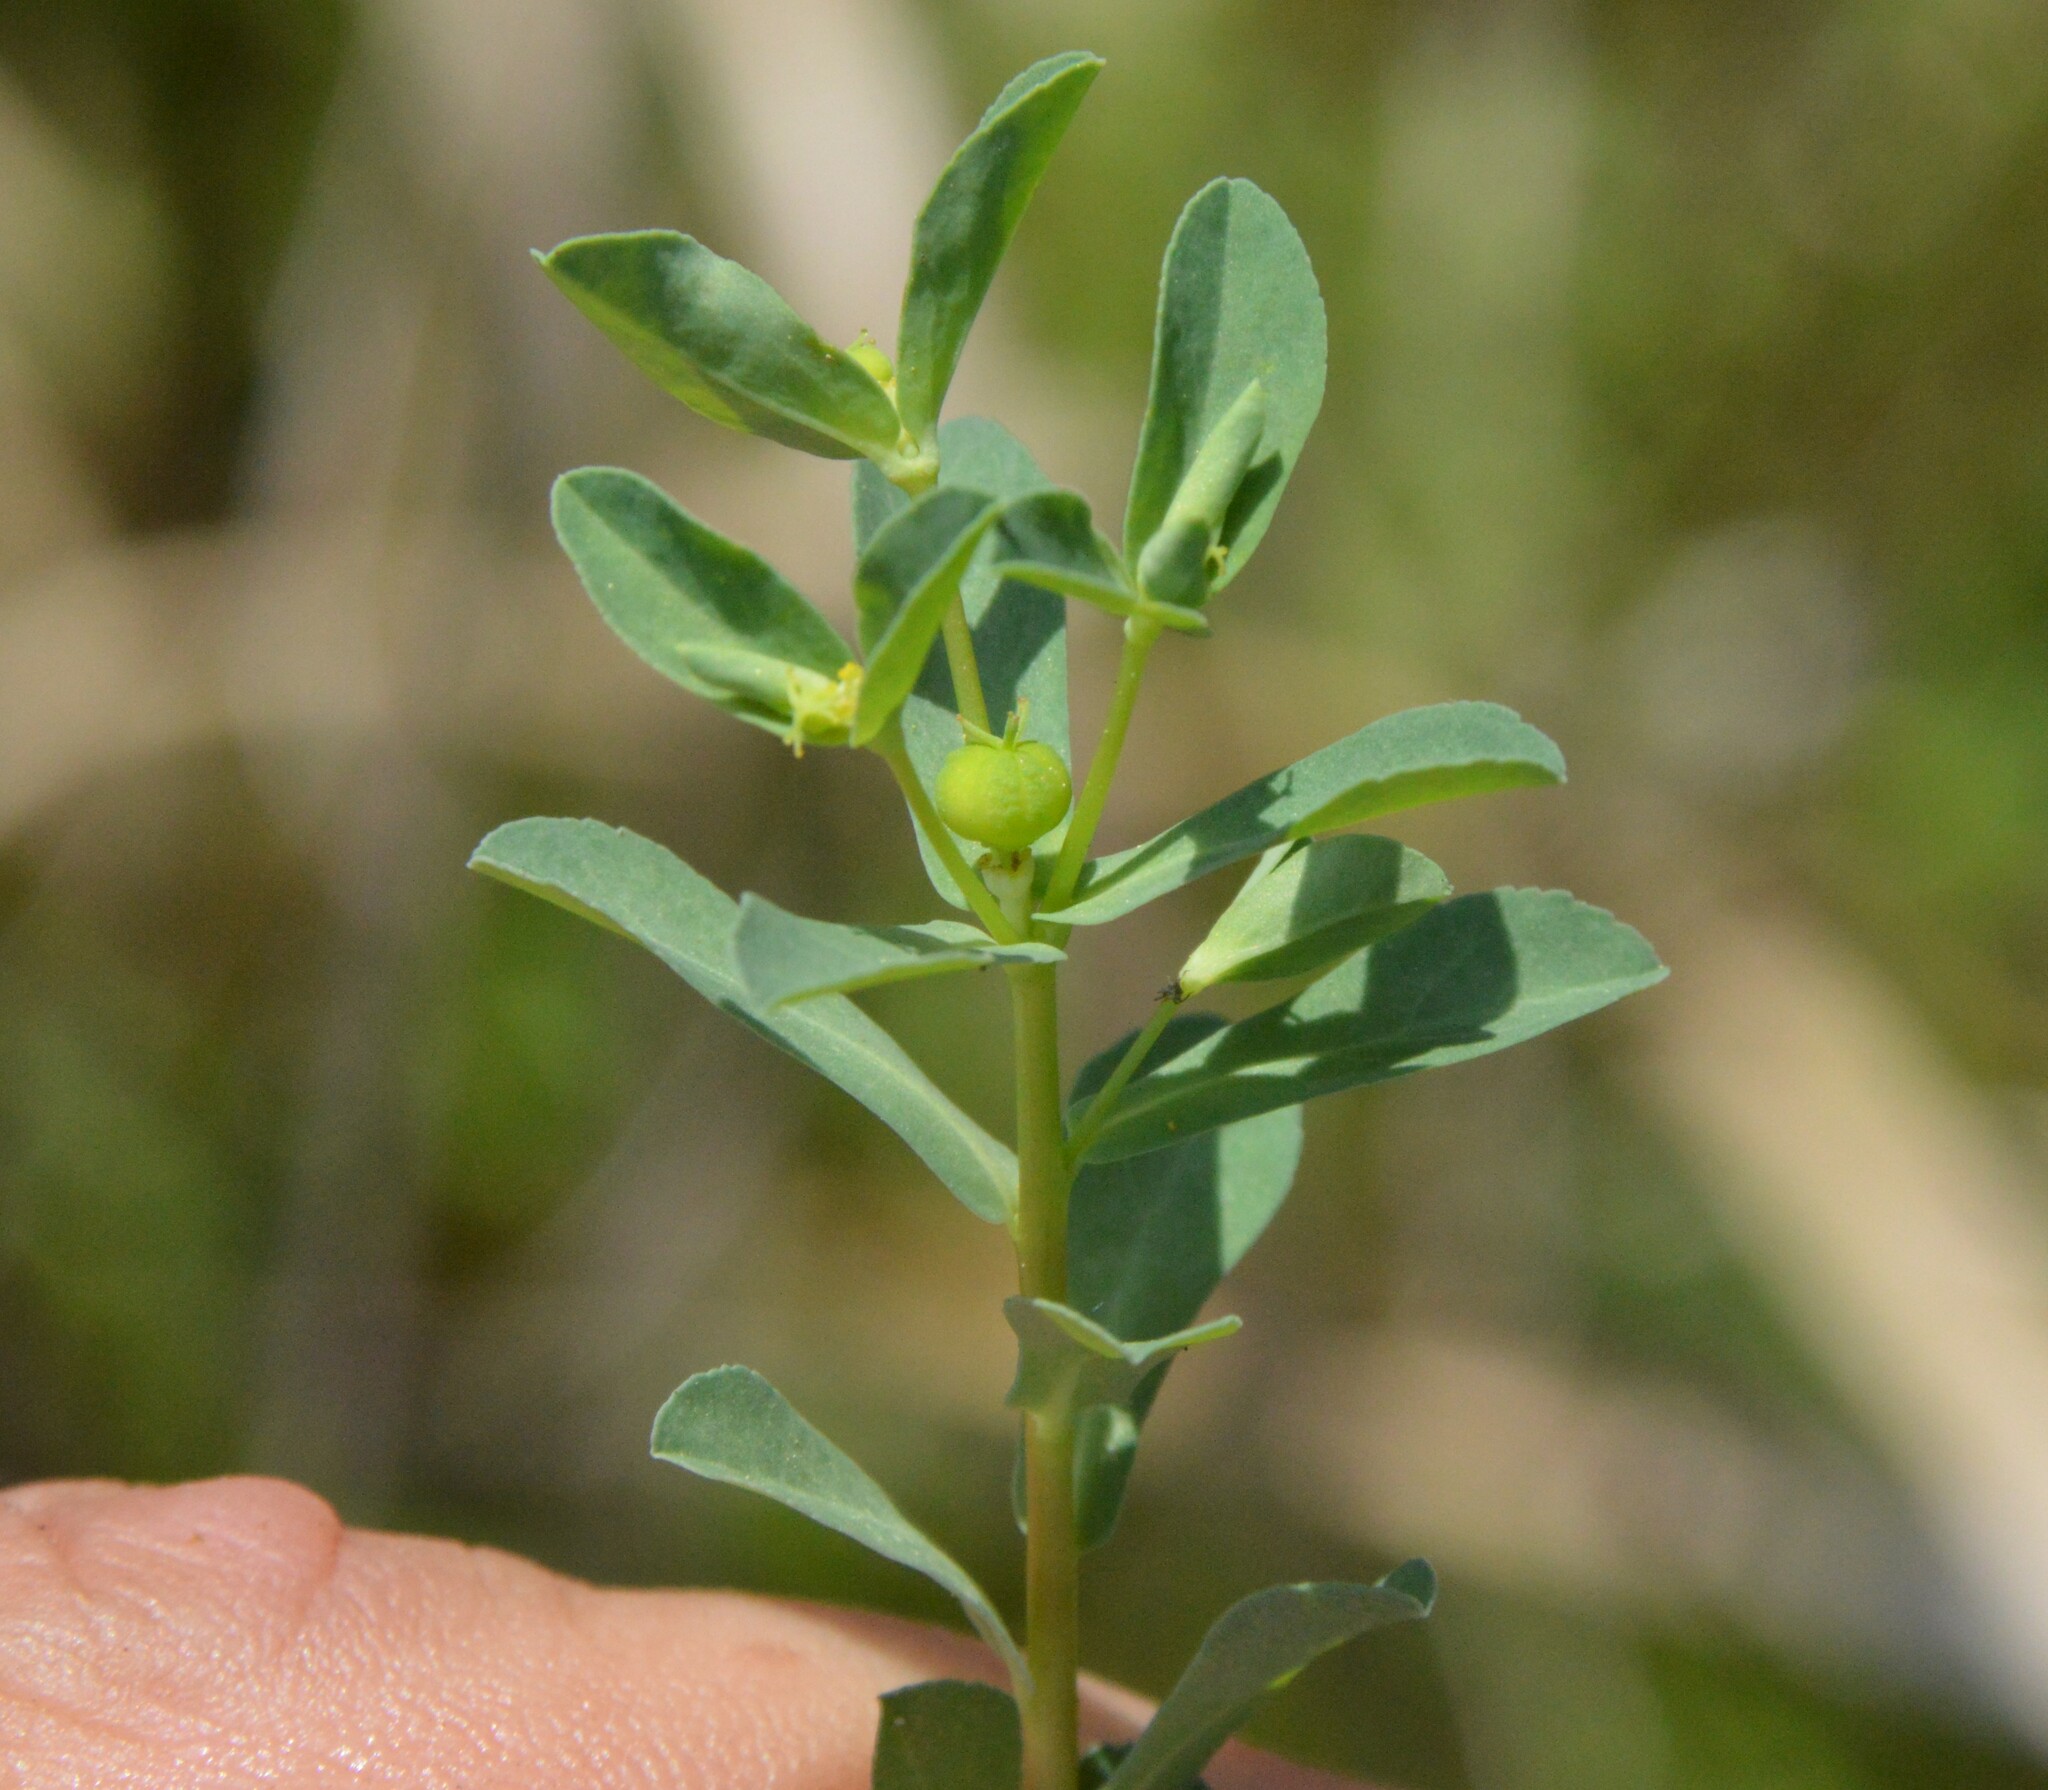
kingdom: Plantae
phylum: Tracheophyta
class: Magnoliopsida
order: Malpighiales
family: Euphorbiaceae
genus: Euphorbia
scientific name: Euphorbia texana
